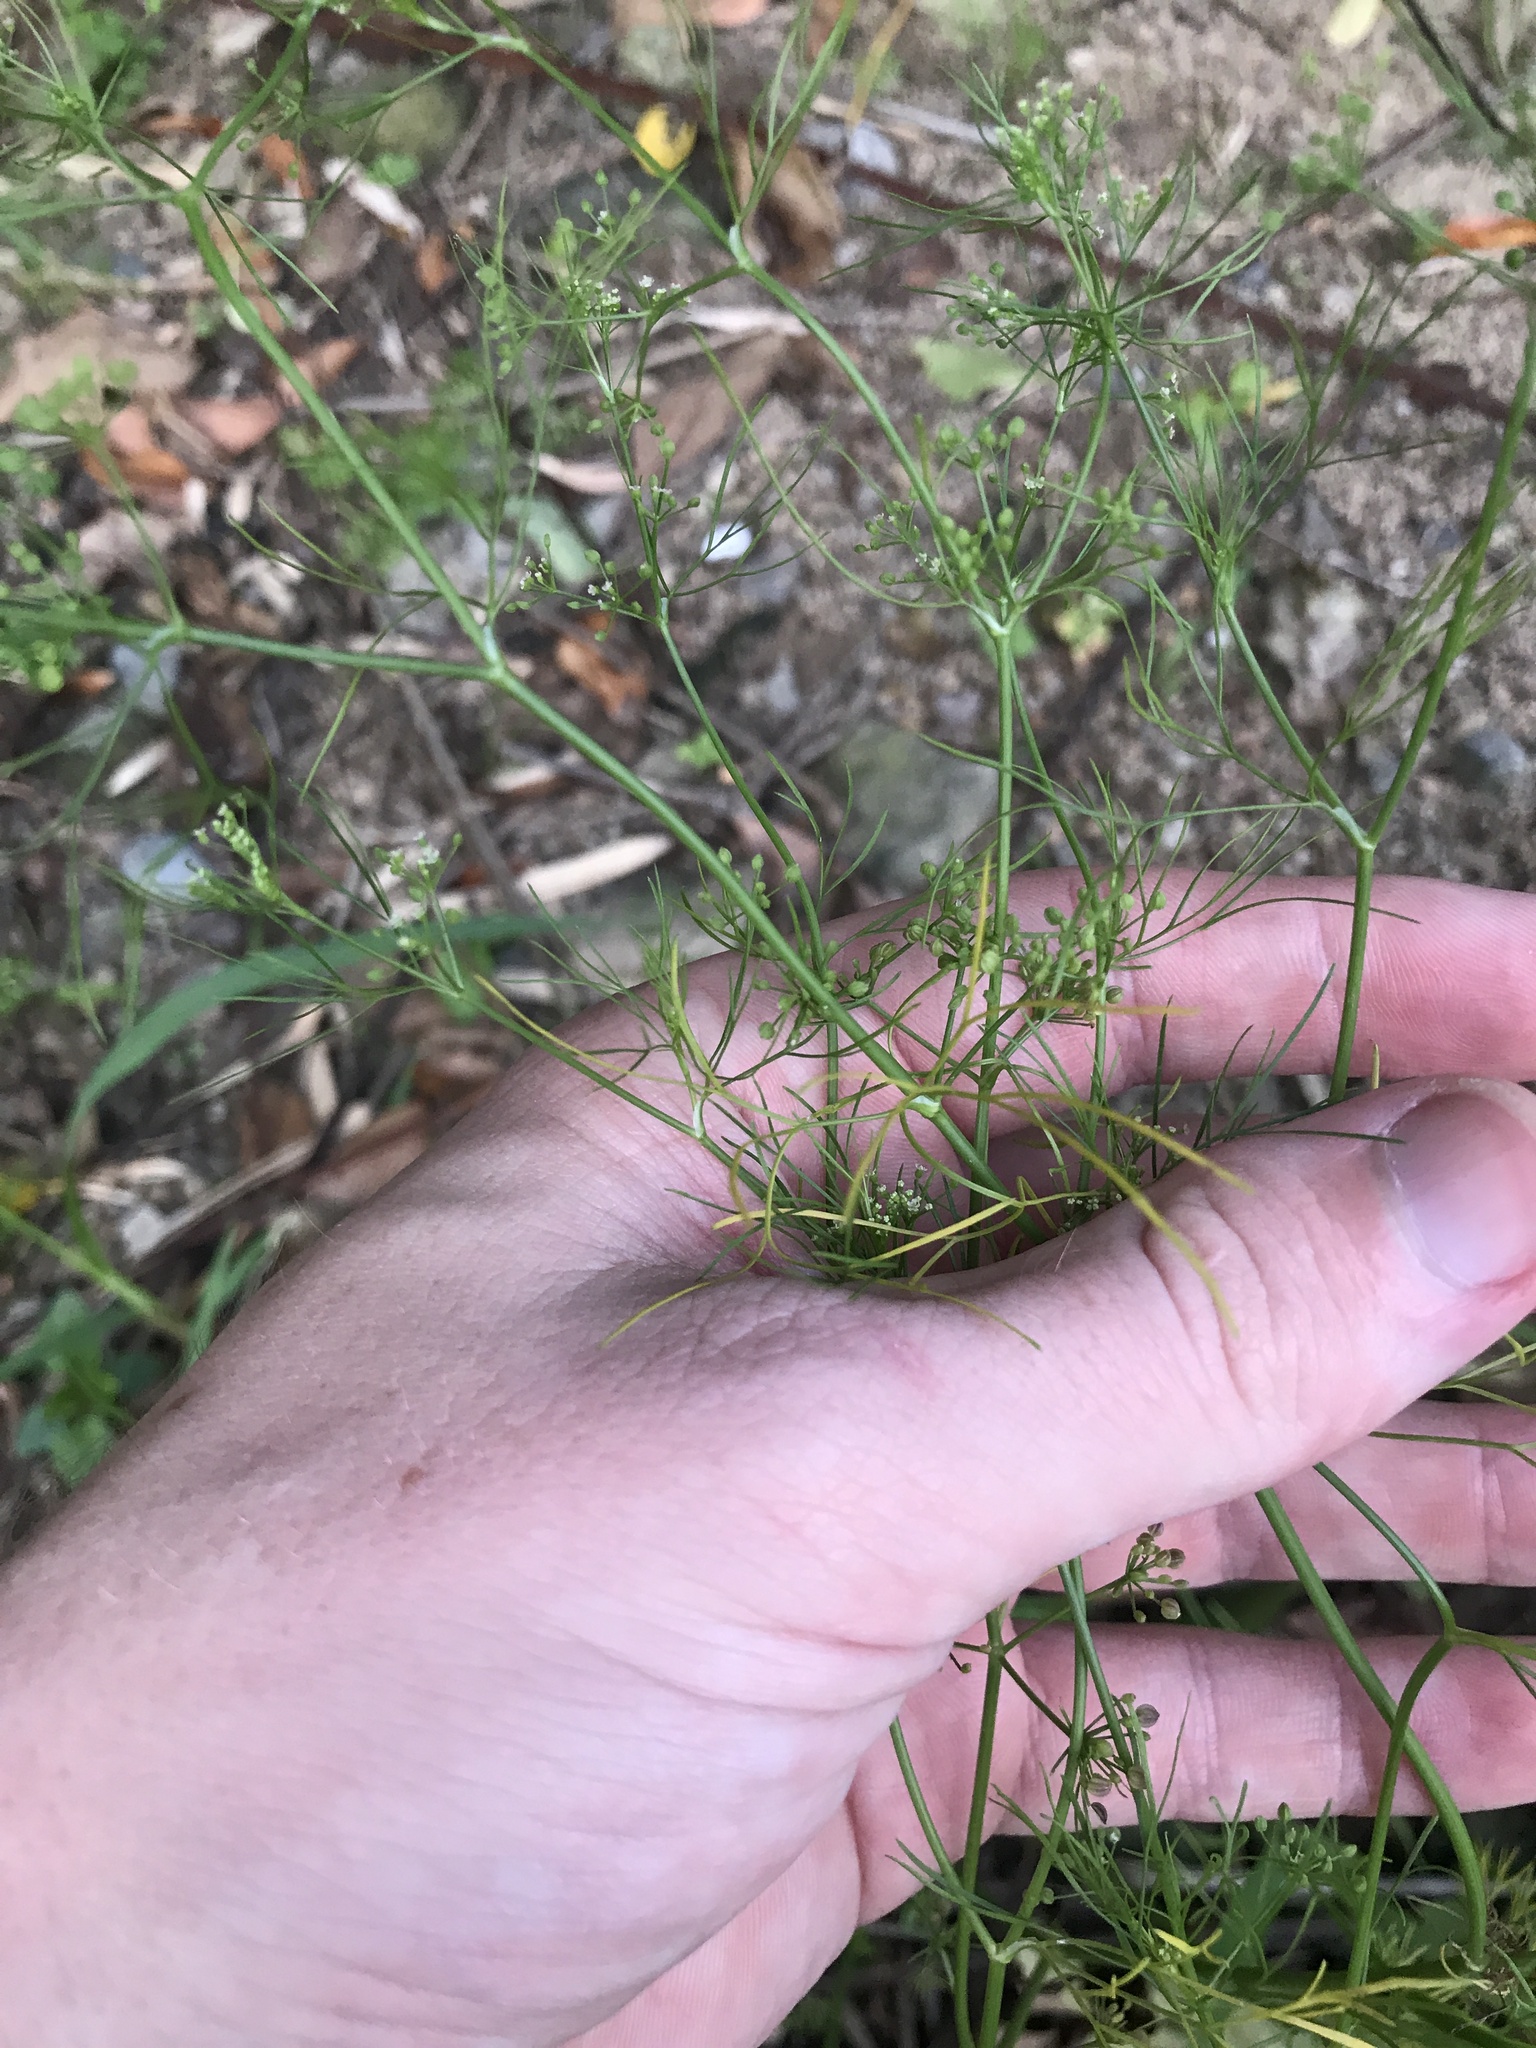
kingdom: Plantae
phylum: Tracheophyta
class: Magnoliopsida
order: Apiales
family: Apiaceae
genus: Cyclospermum
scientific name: Cyclospermum leptophyllum
